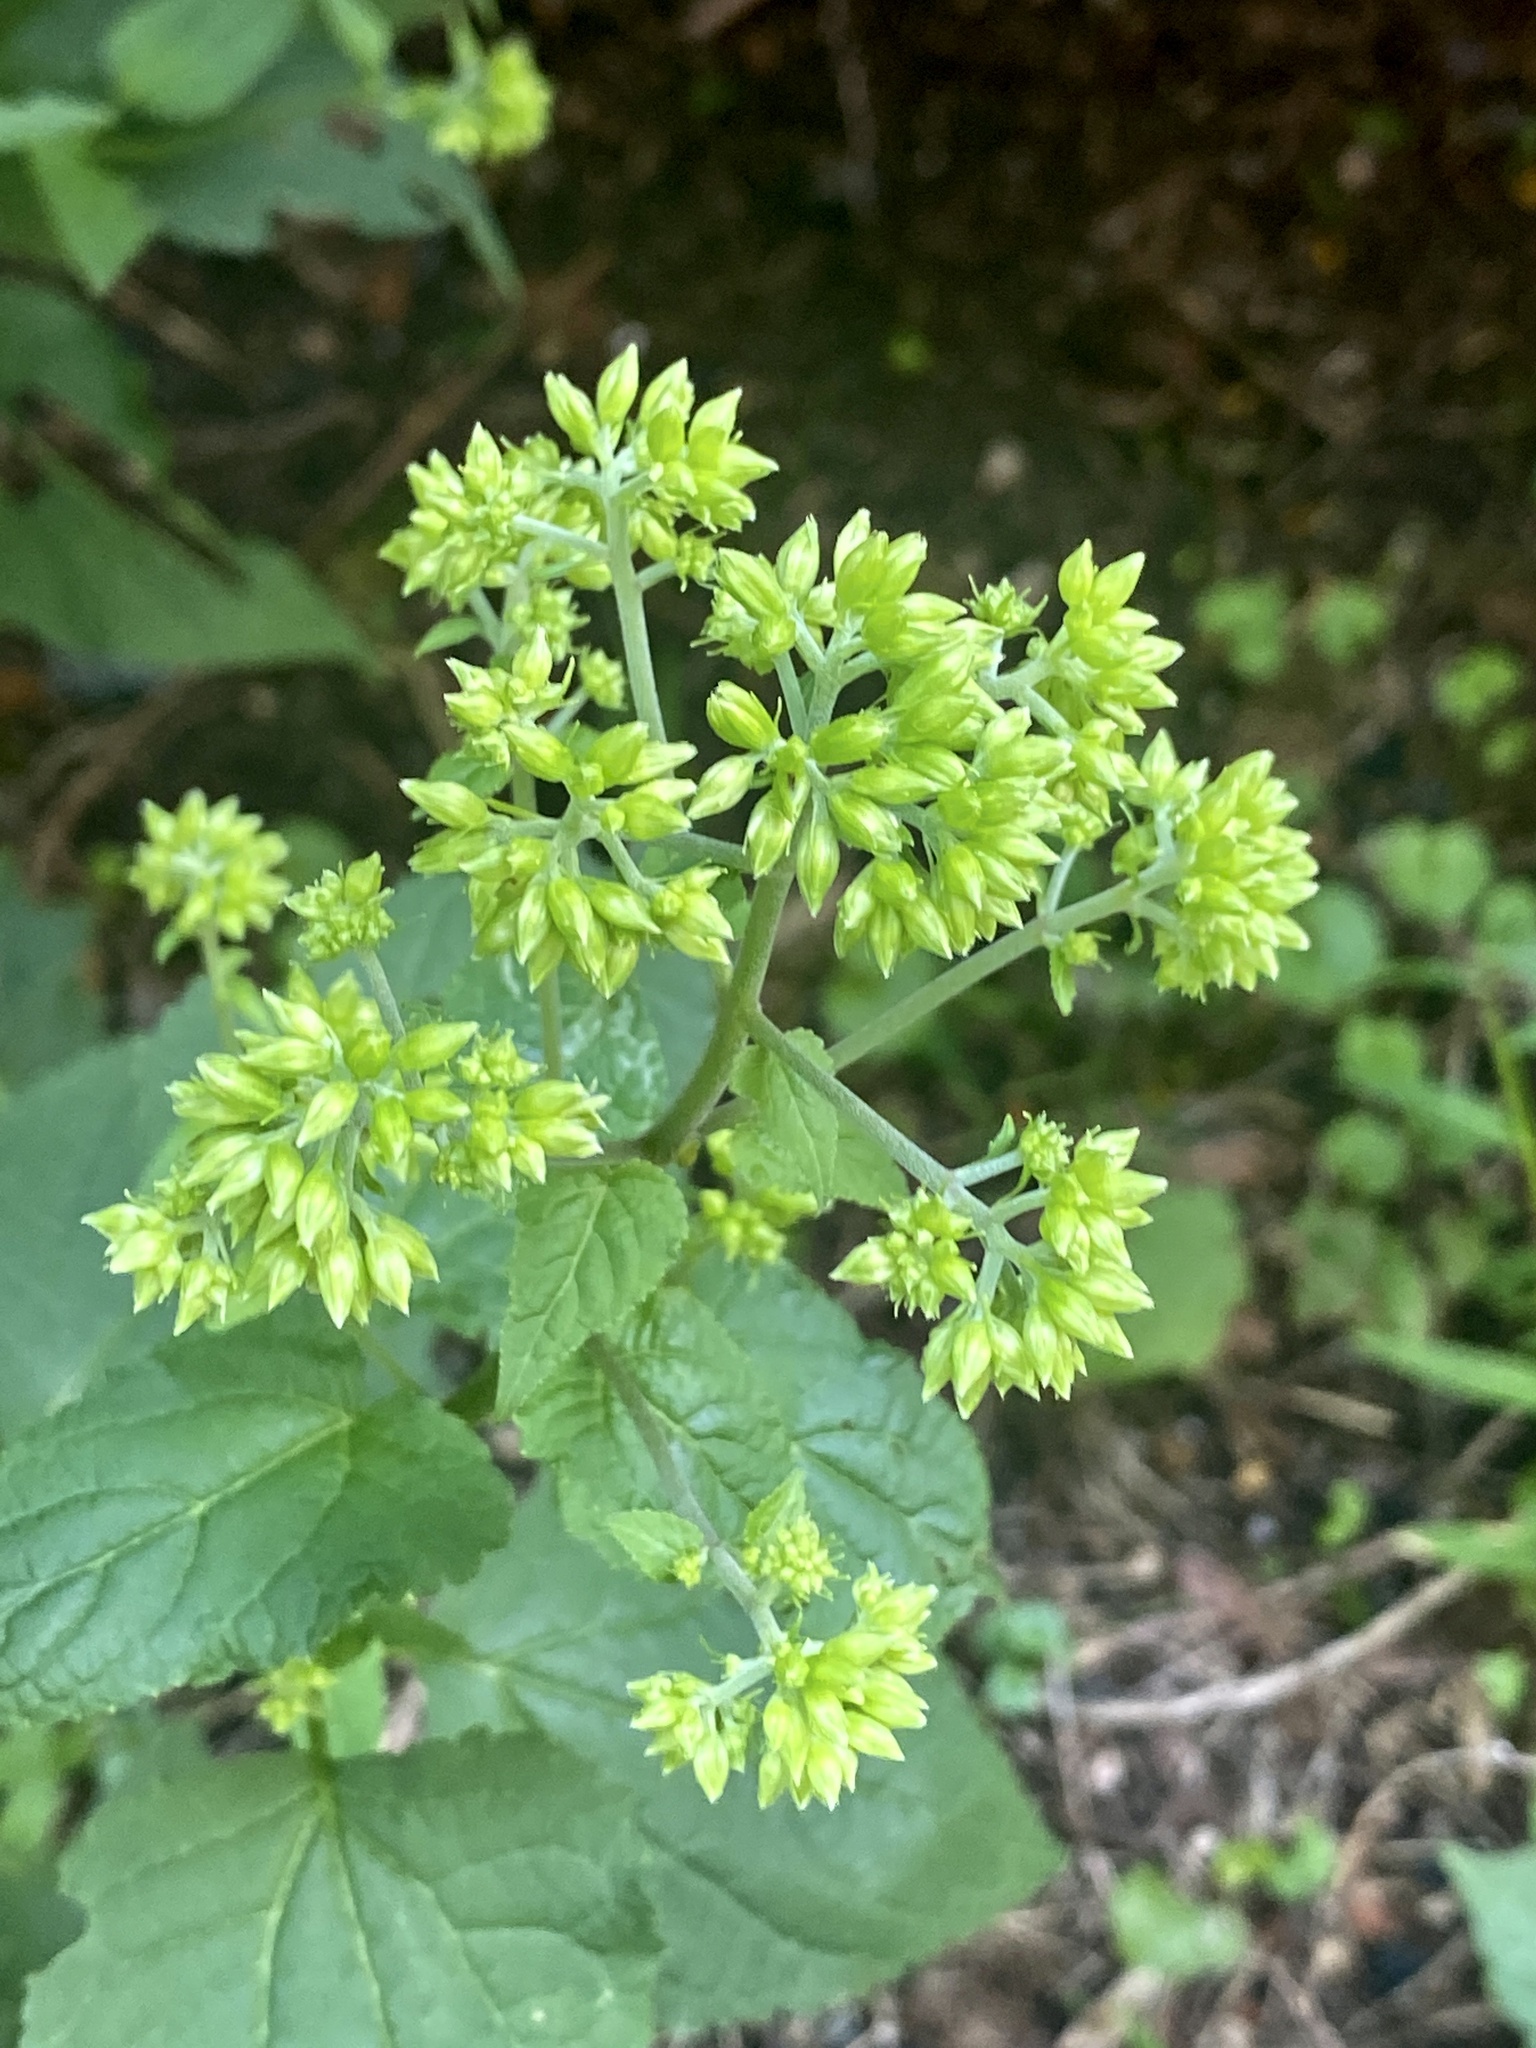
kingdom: Plantae
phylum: Tracheophyta
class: Magnoliopsida
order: Asterales
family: Asteraceae
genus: Ageratina
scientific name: Ageratina altissima
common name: White snakeroot
